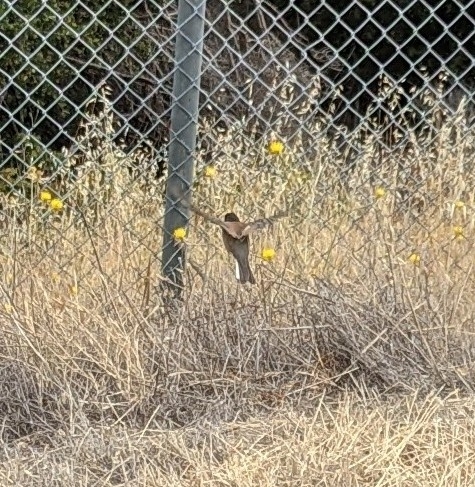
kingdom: Animalia
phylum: Chordata
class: Aves
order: Passeriformes
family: Passerellidae
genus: Junco
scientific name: Junco hyemalis
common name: Dark-eyed junco
